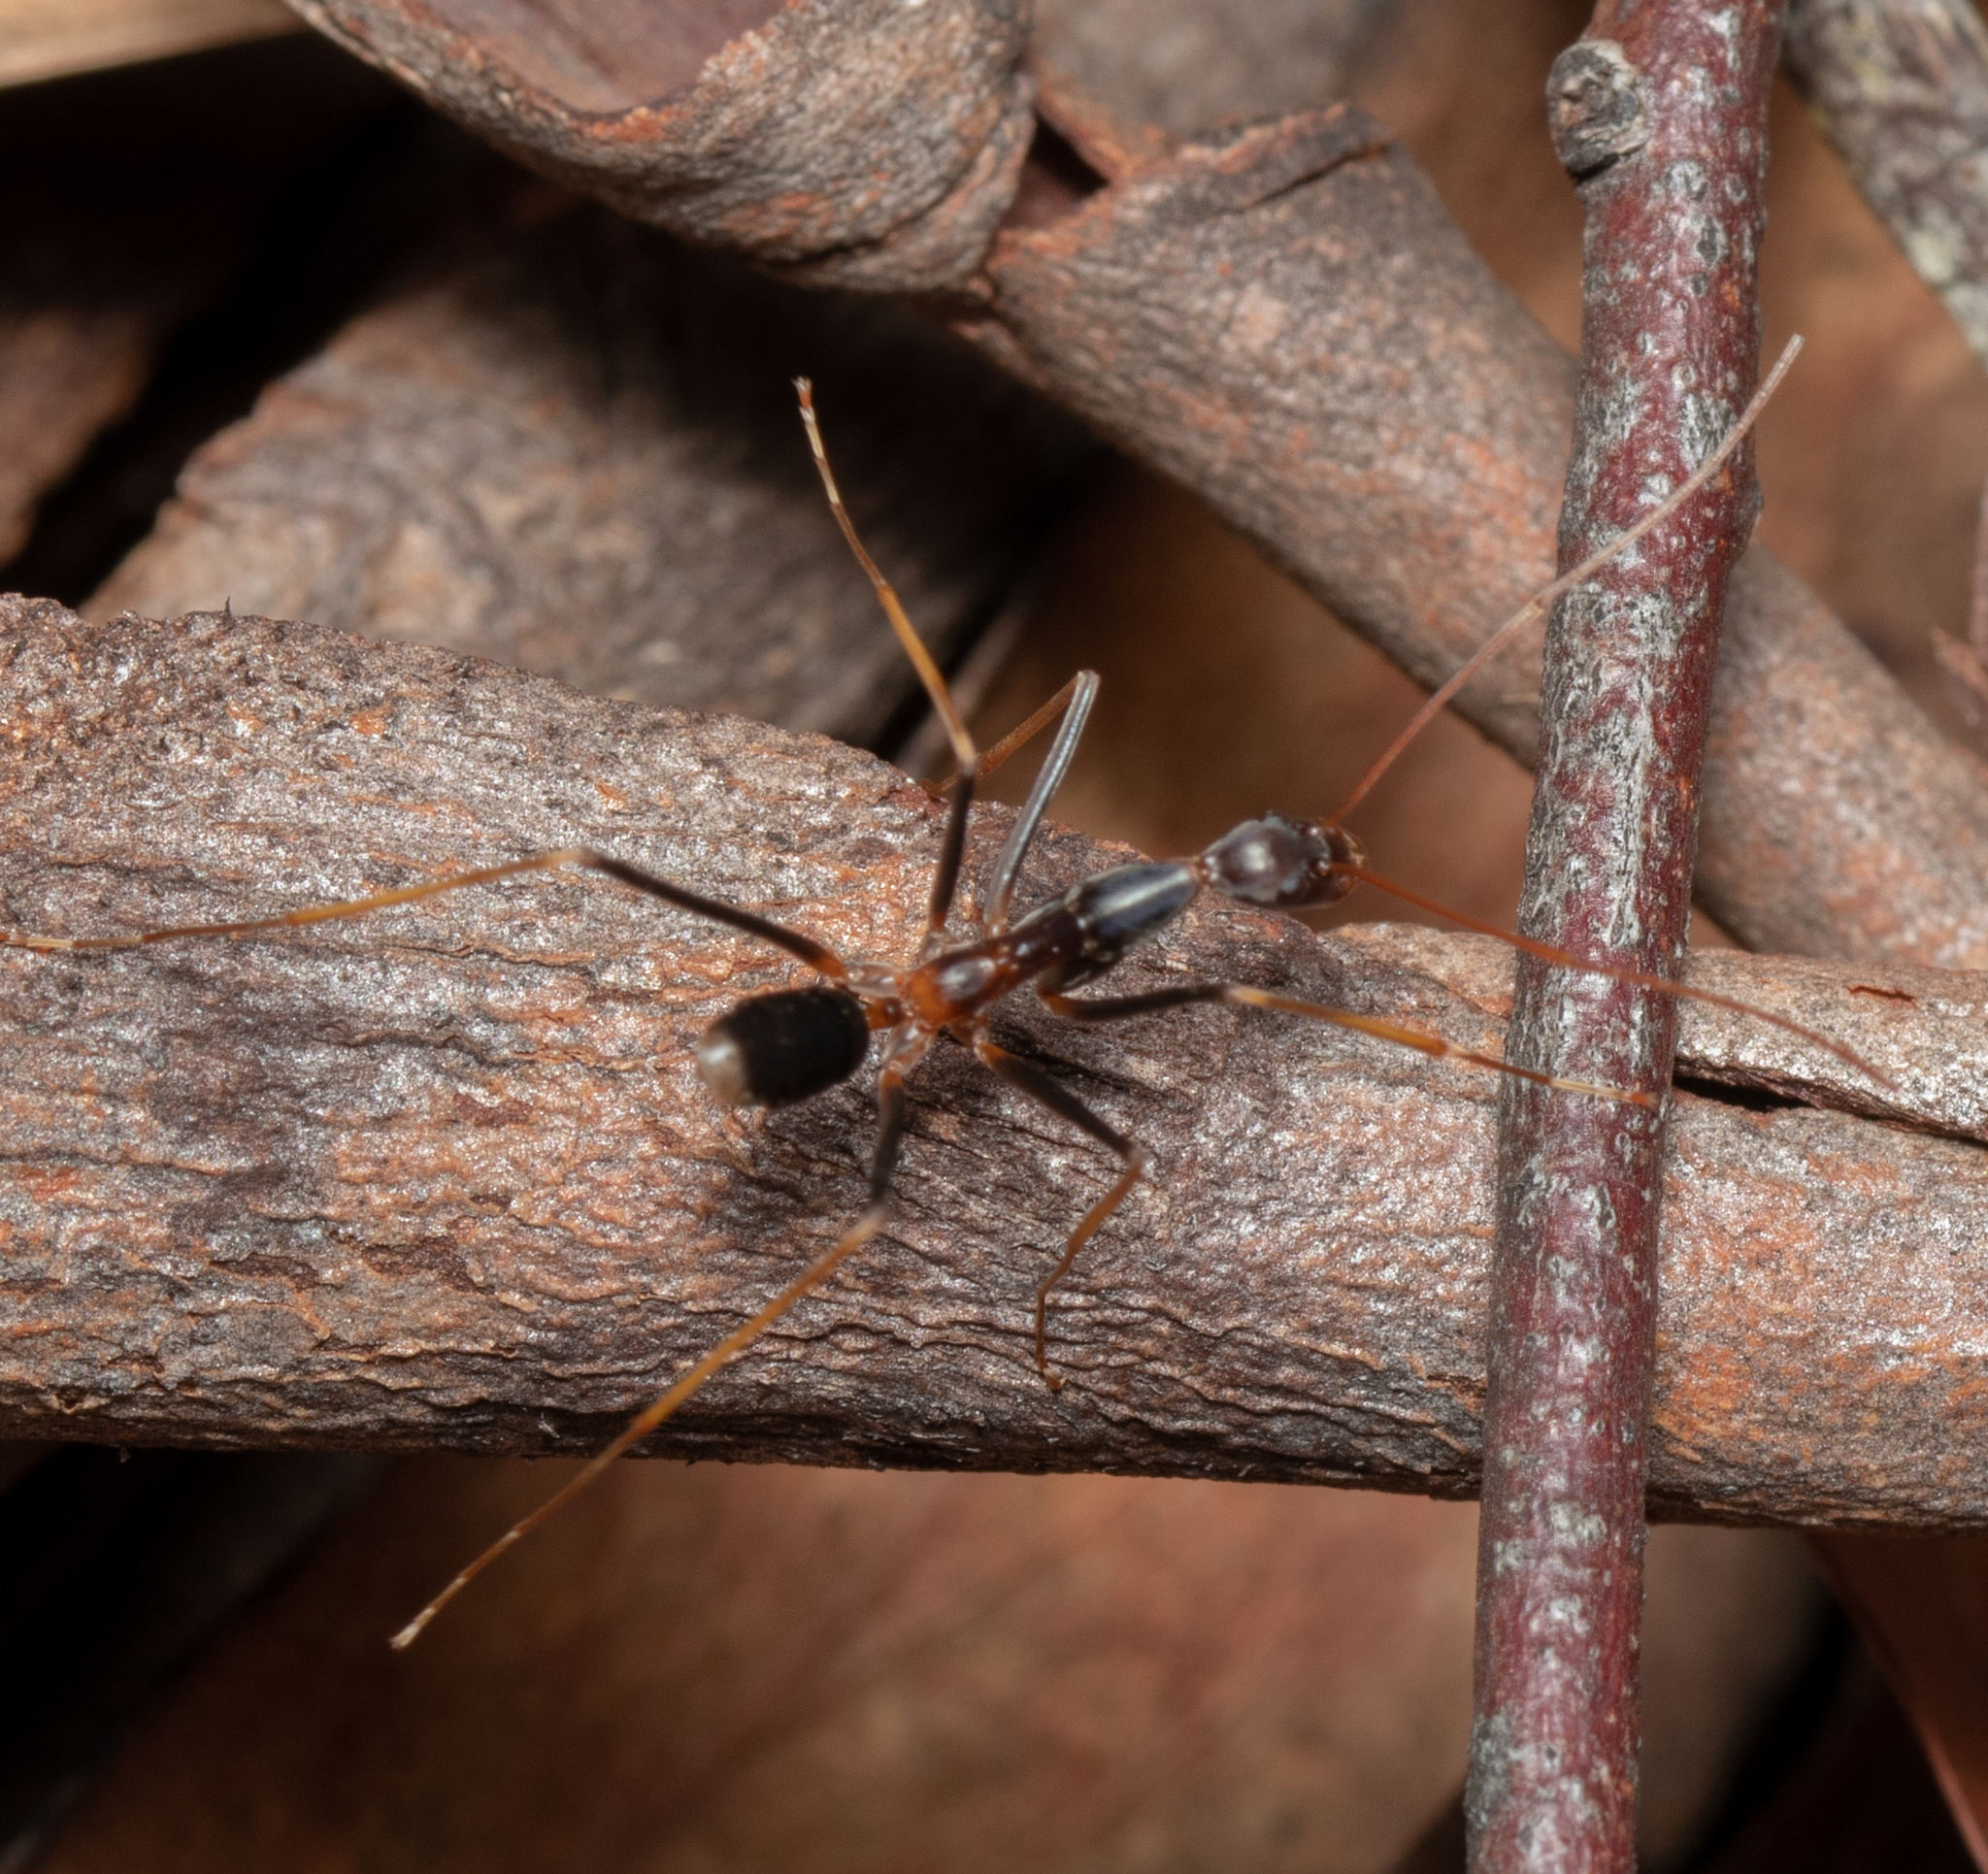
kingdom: Animalia
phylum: Arthropoda
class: Insecta
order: Hymenoptera
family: Formicidae
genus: Leptomyrmex
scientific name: Leptomyrmex rothneyi
